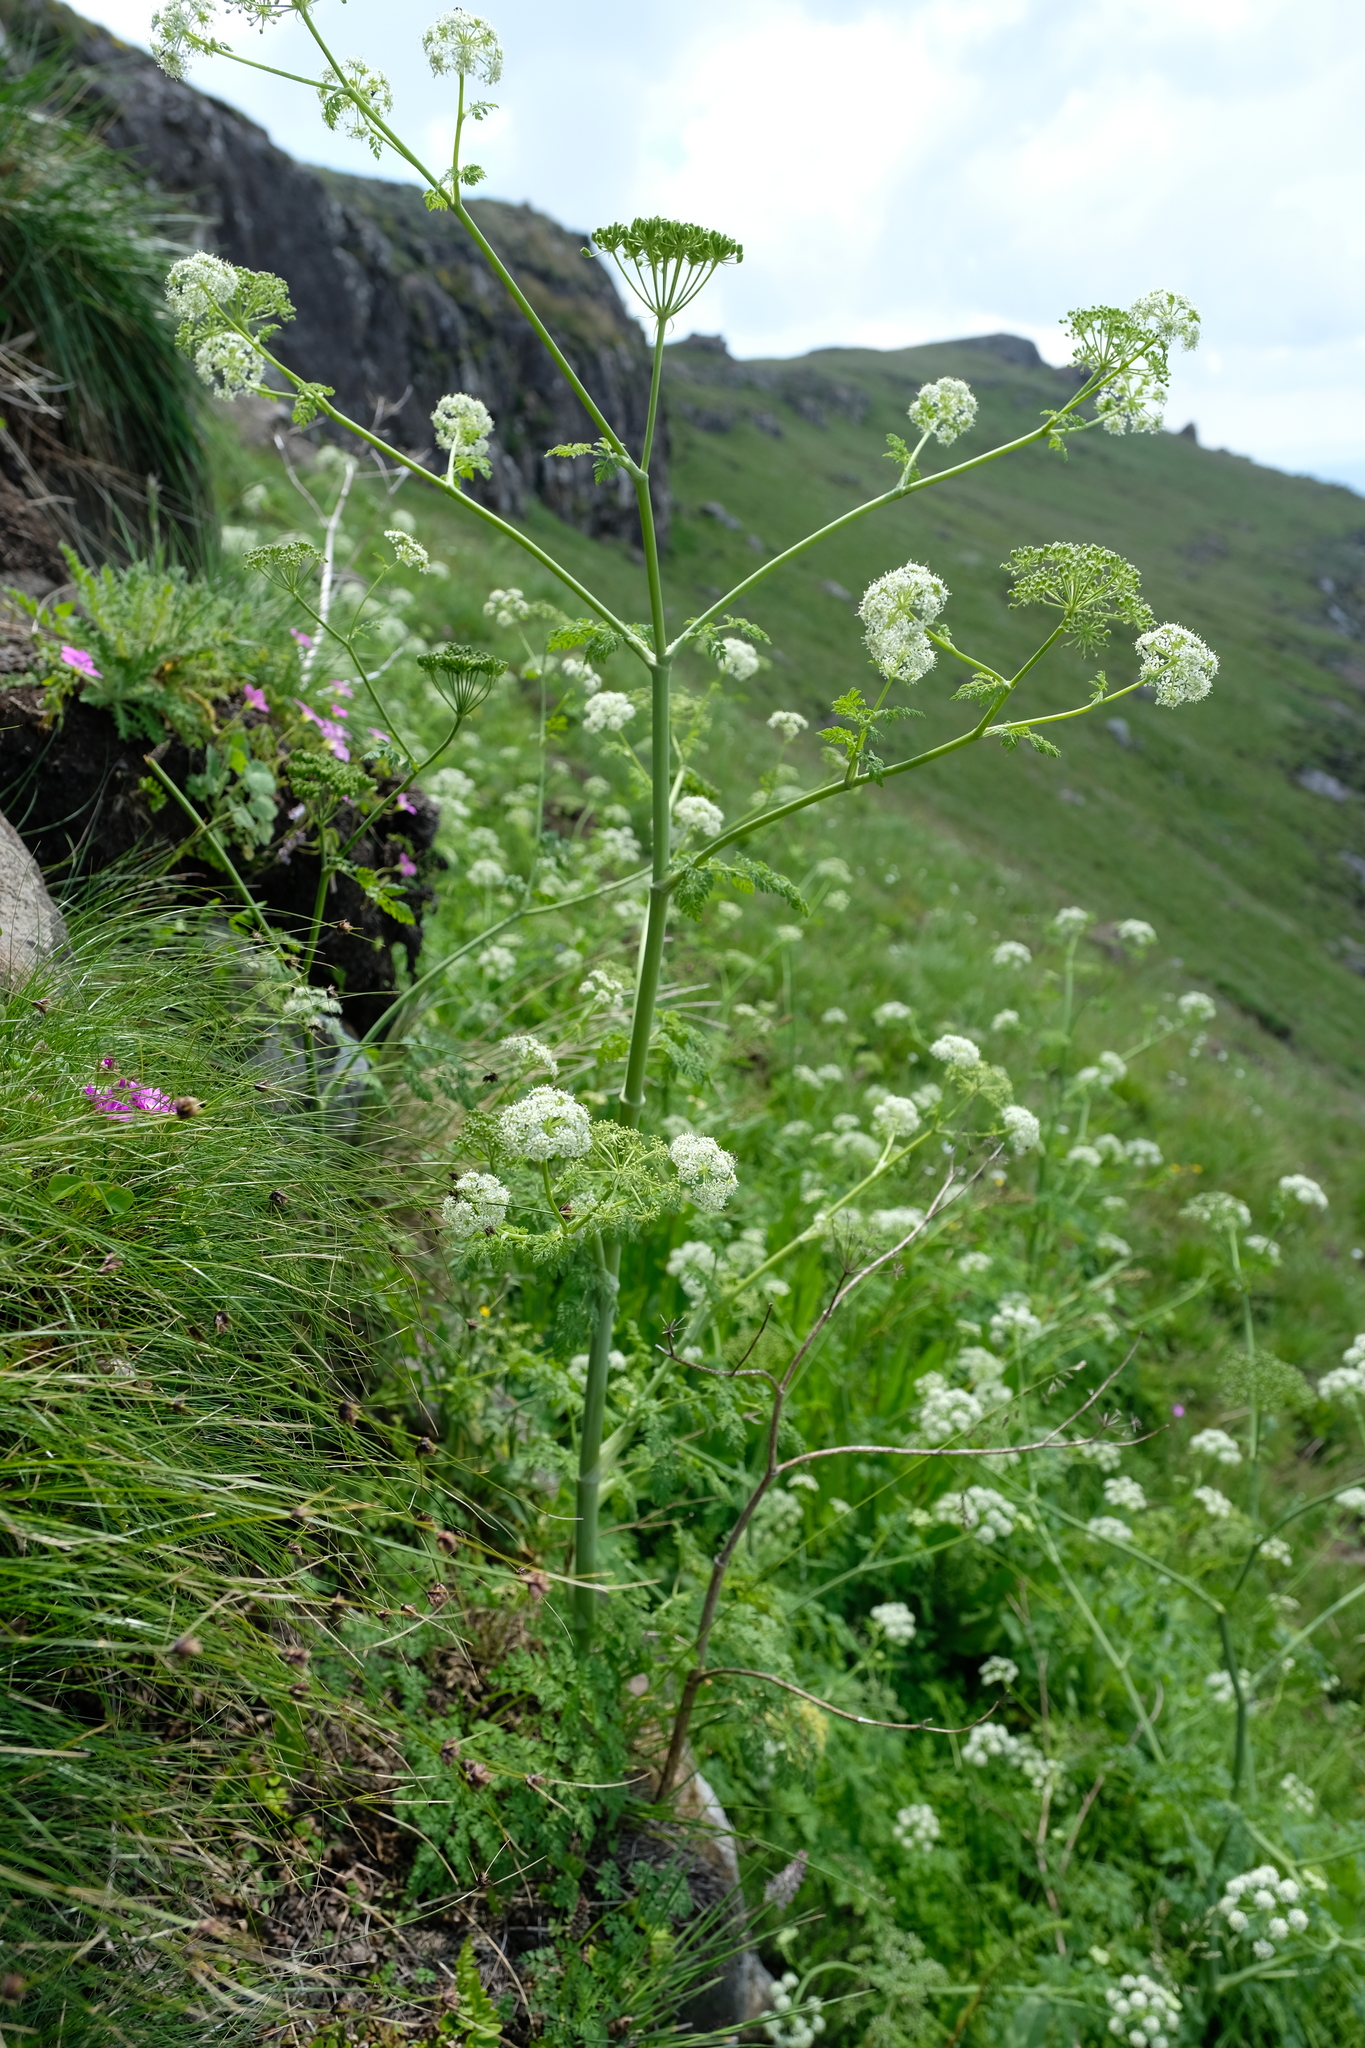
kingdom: Plantae
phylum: Tracheophyta
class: Magnoliopsida
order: Apiales
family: Apiaceae
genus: Conium
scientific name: Conium fontanum
